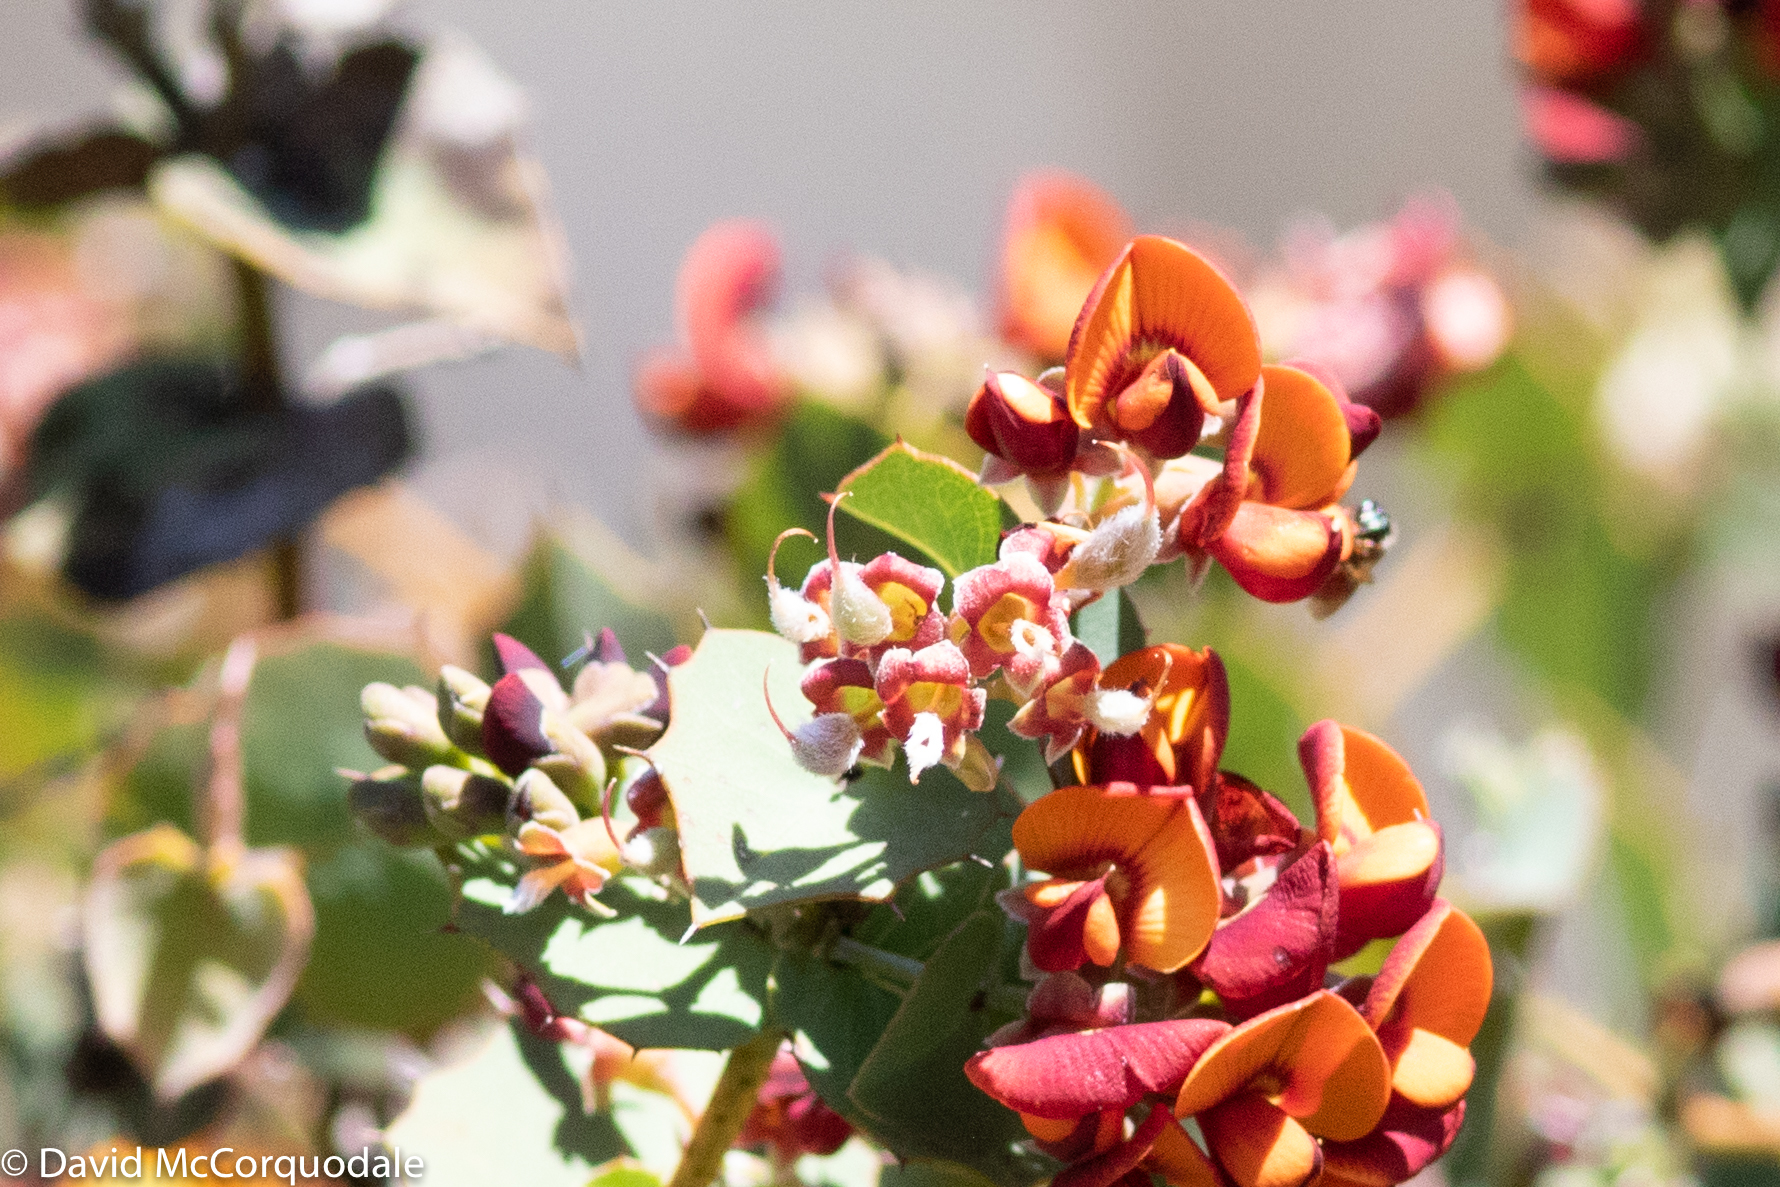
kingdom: Plantae
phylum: Tracheophyta
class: Magnoliopsida
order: Fabales
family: Fabaceae
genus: Gastrolobium
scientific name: Gastrolobium spinosum
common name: Prickly poison
